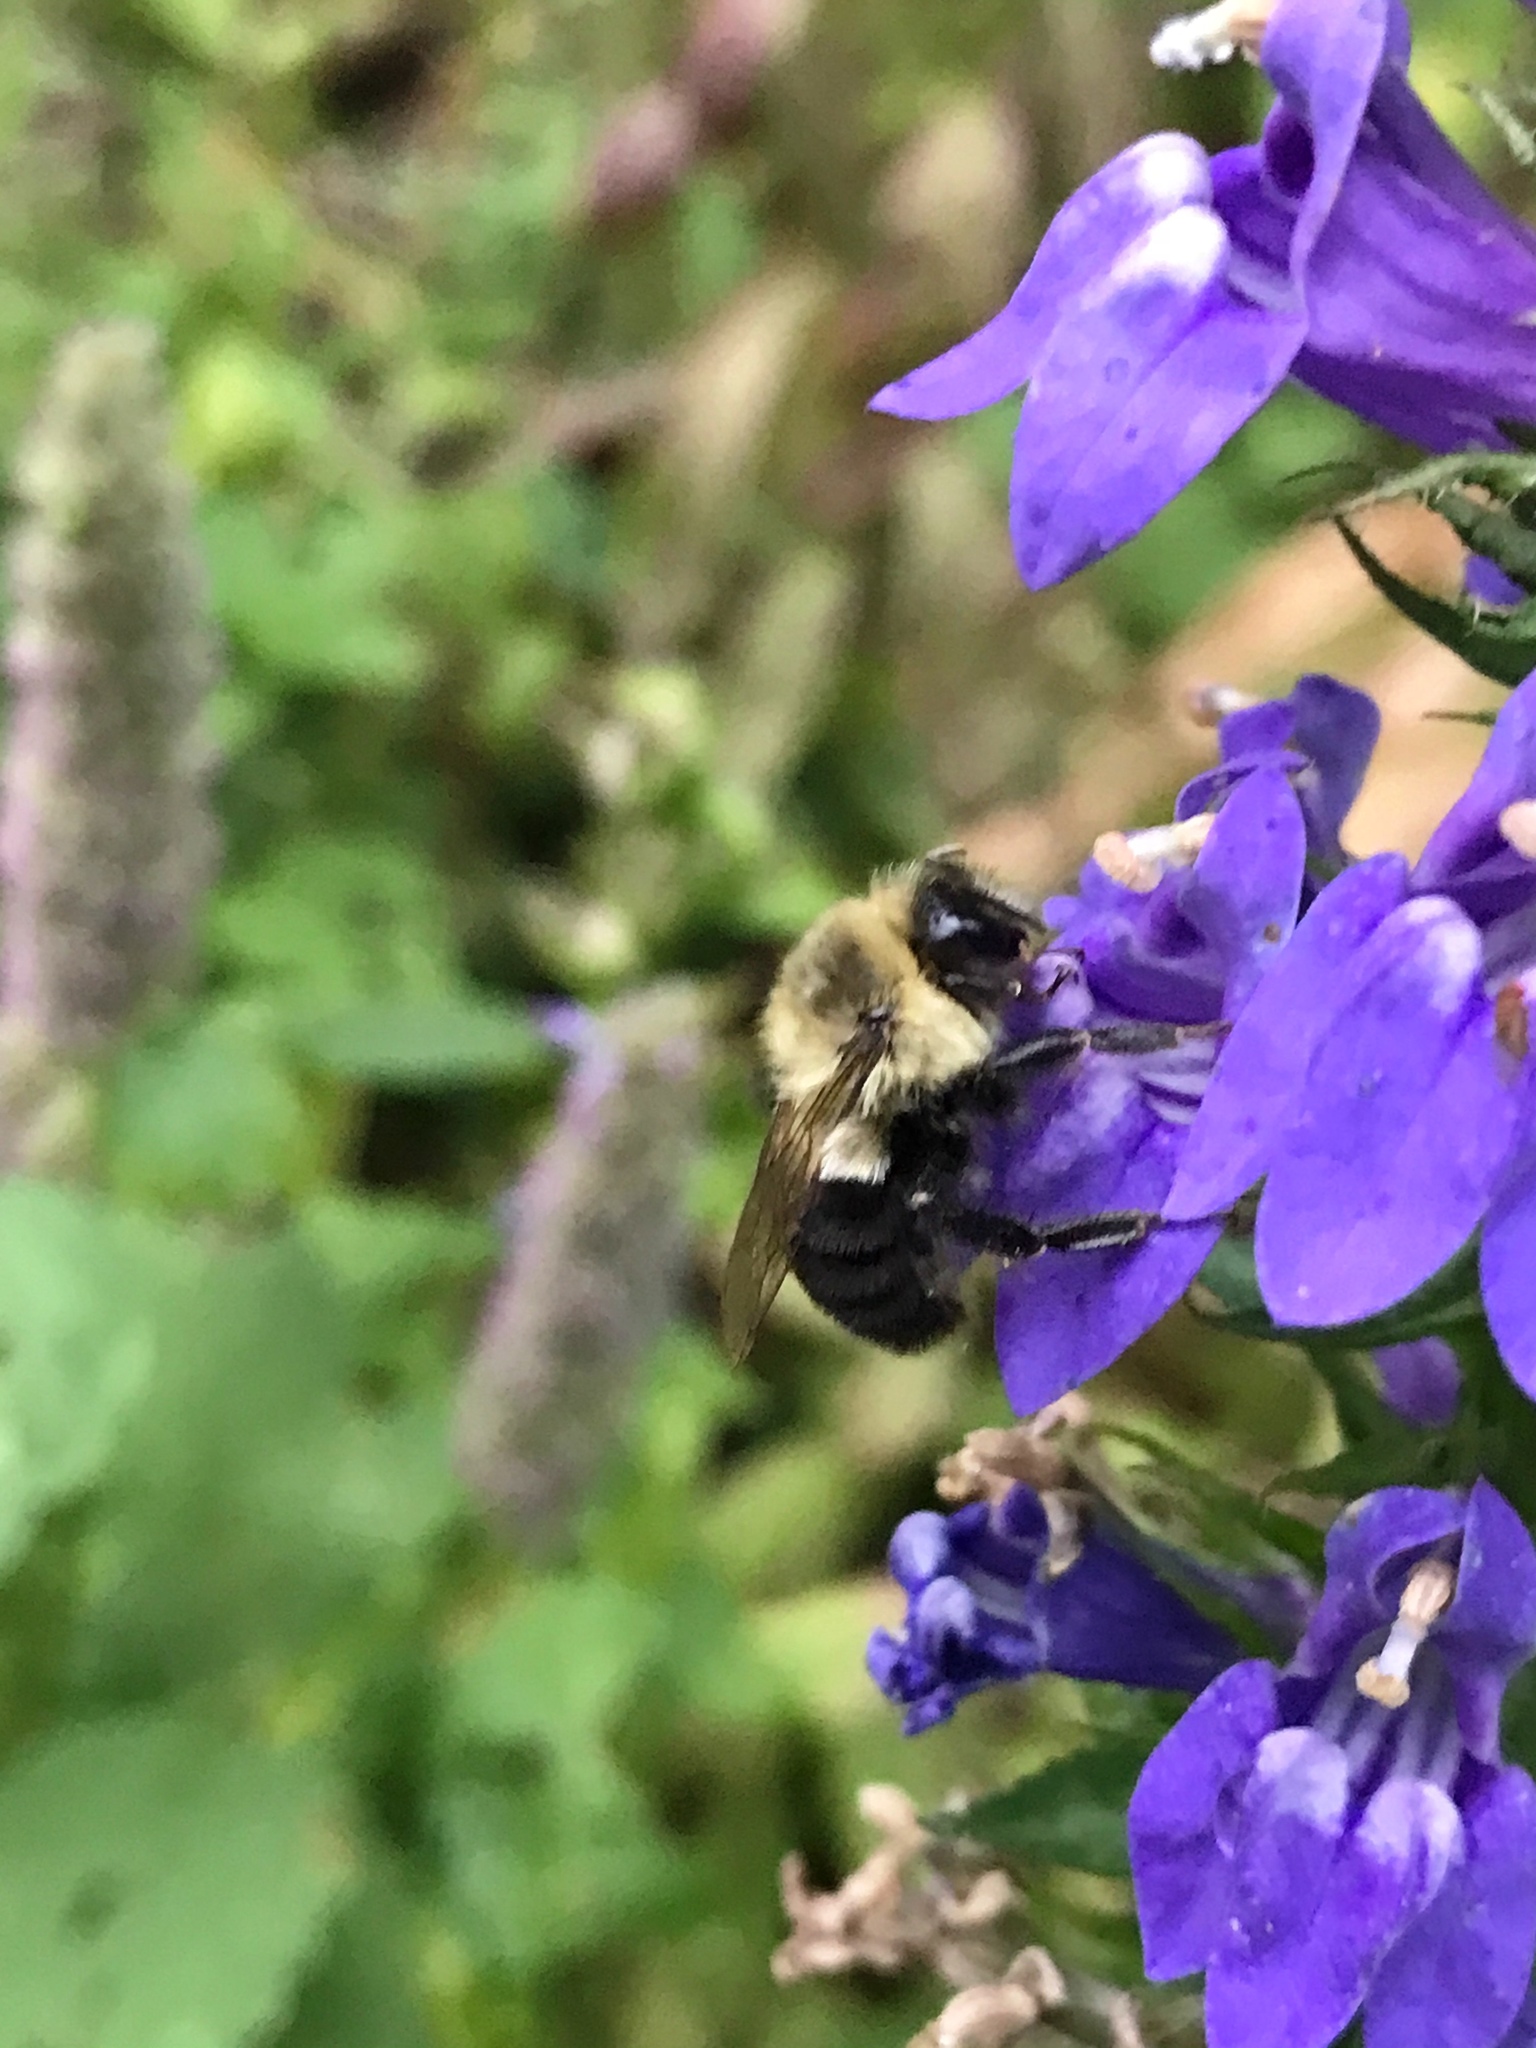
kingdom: Animalia
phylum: Arthropoda
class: Insecta
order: Hymenoptera
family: Apidae
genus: Bombus
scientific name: Bombus impatiens
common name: Common eastern bumble bee
